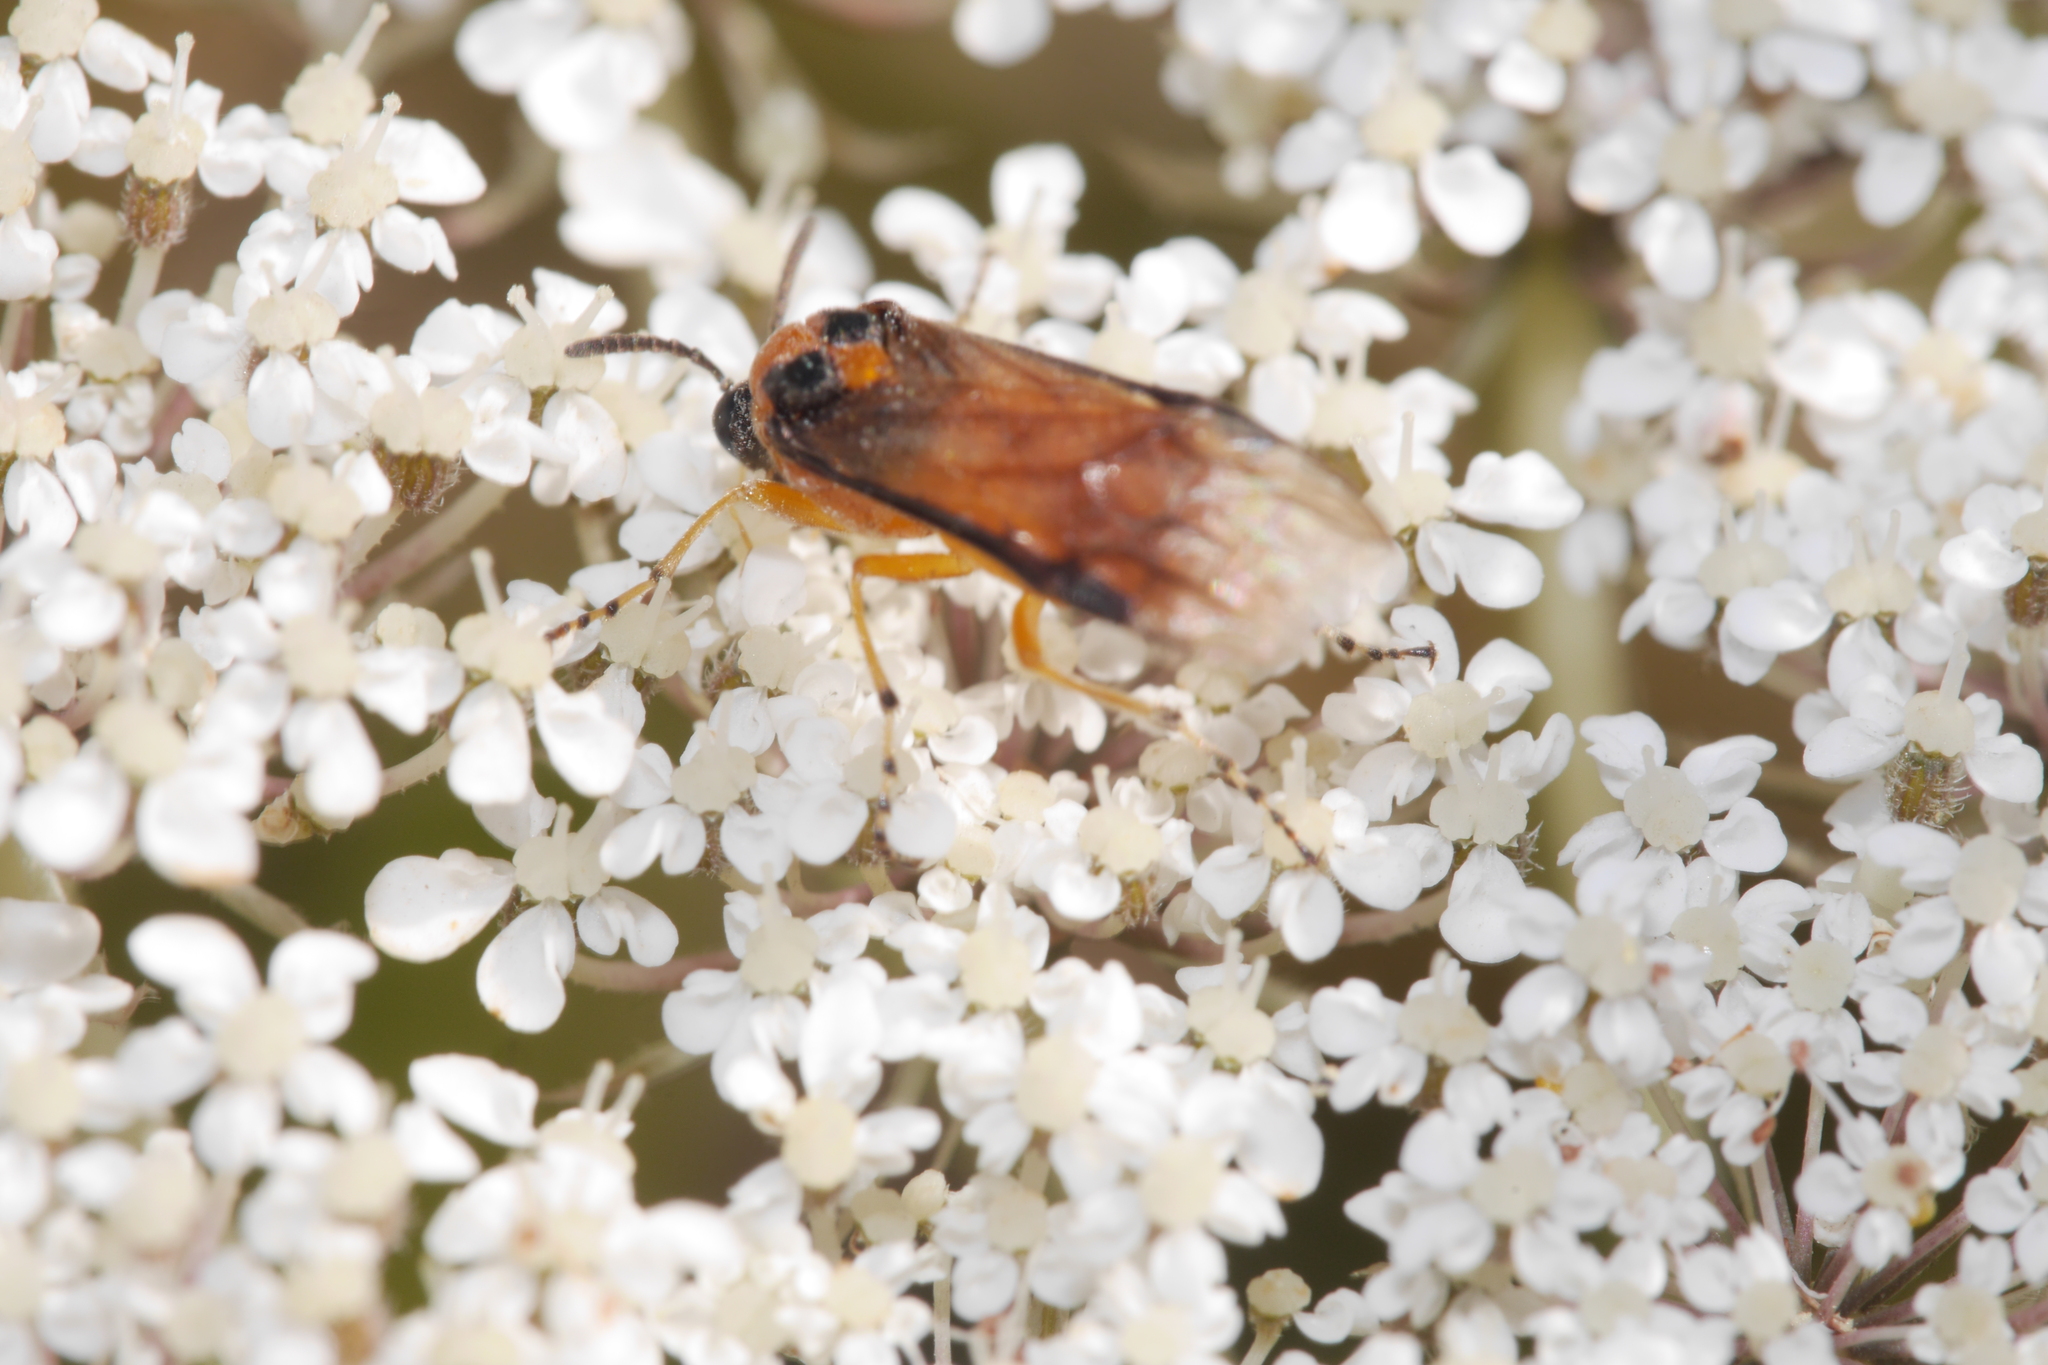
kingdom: Animalia
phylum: Arthropoda
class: Insecta
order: Hymenoptera
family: Tenthredinidae
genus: Athalia
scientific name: Athalia rosae
